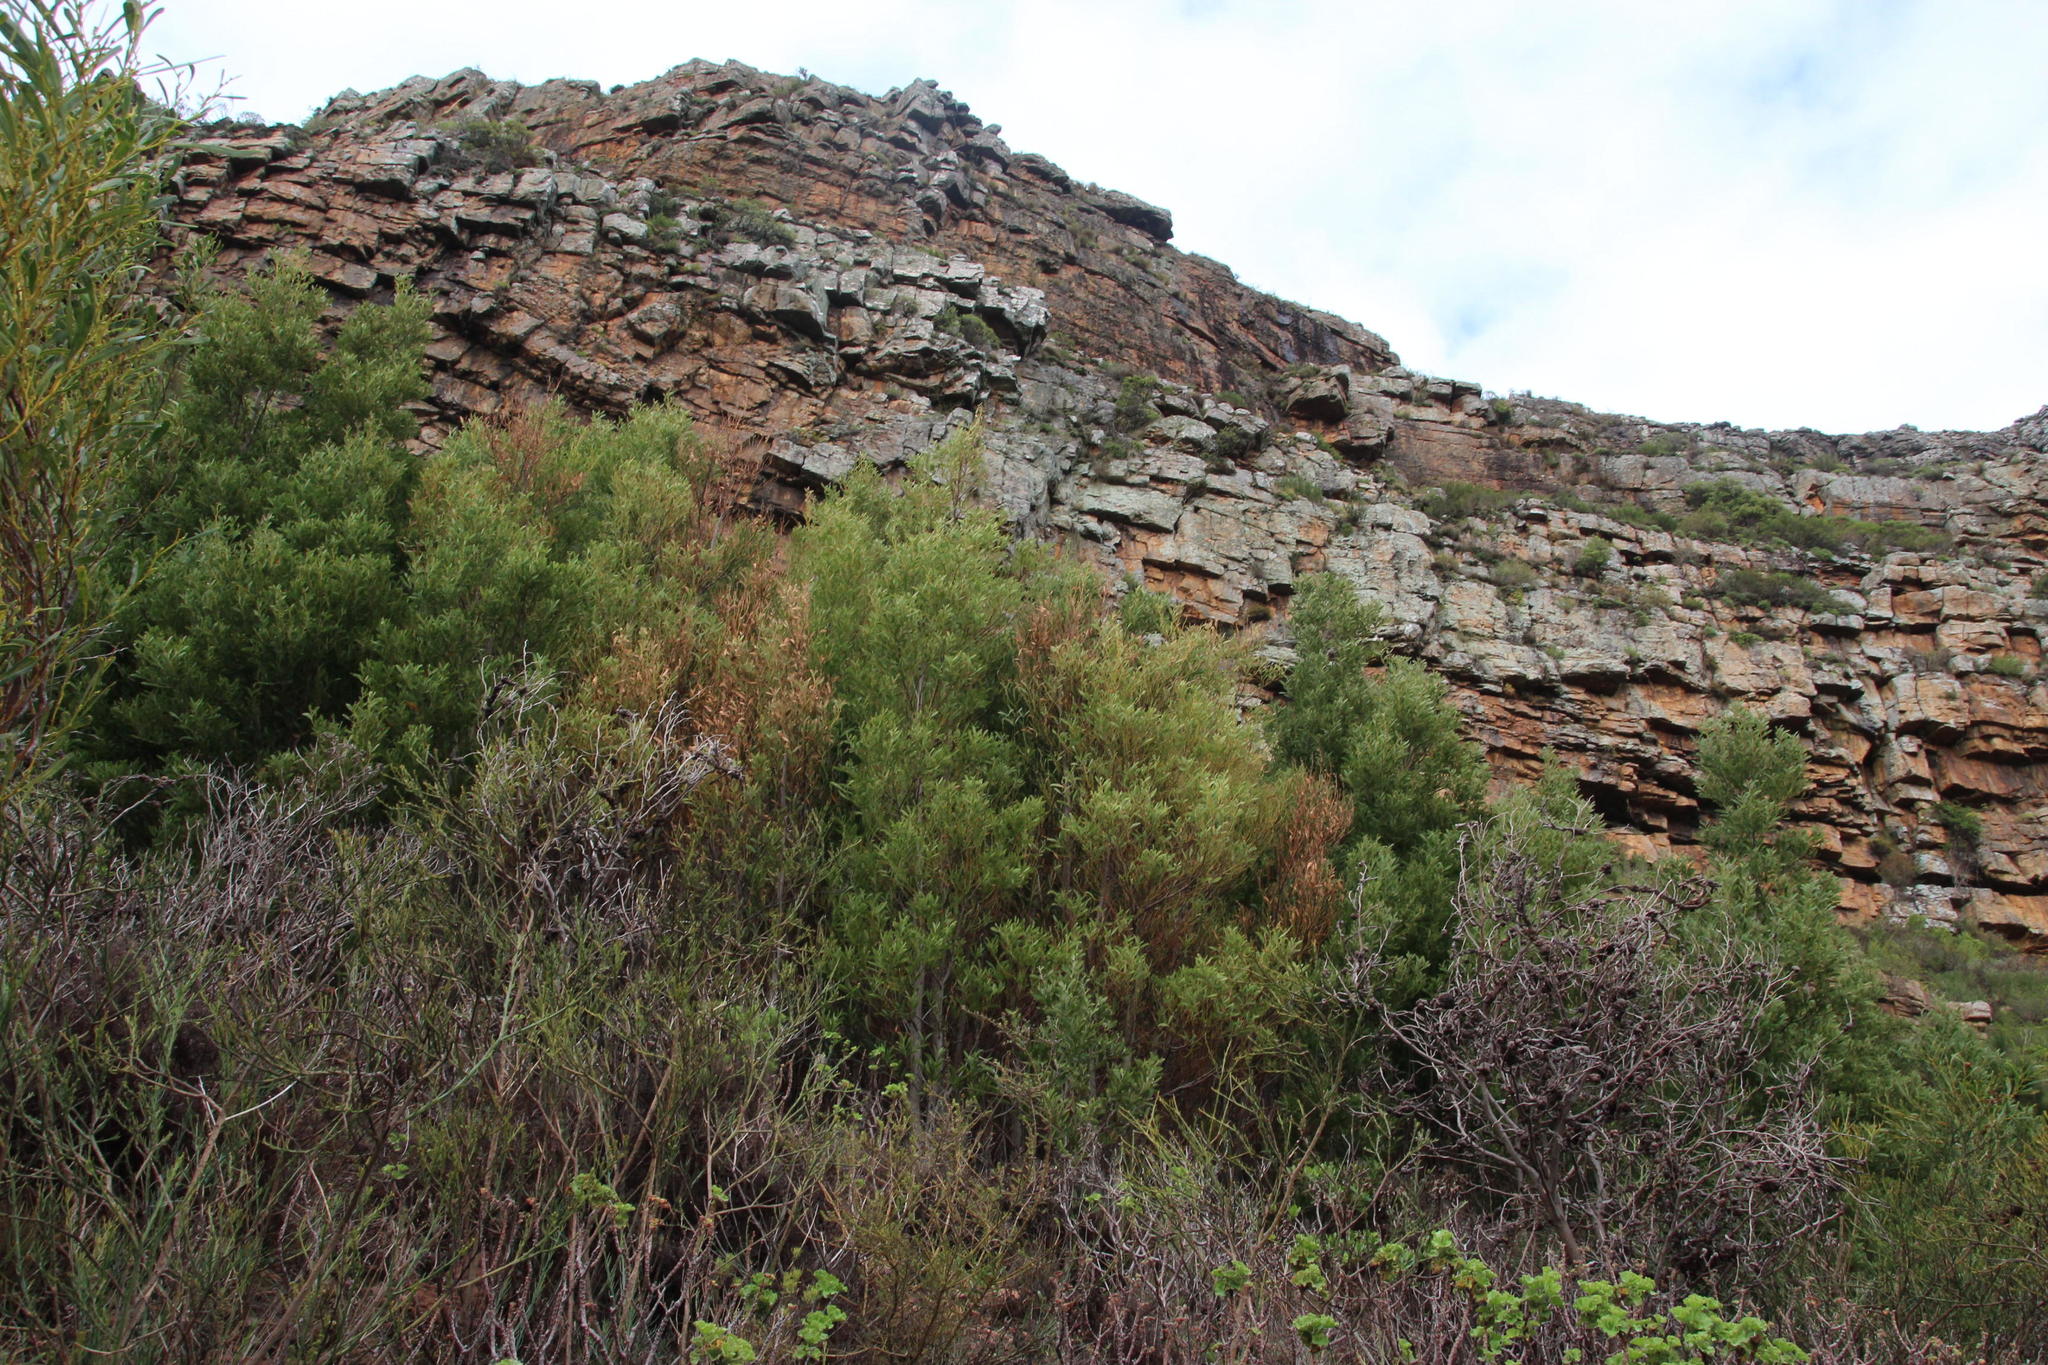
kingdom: Plantae
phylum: Tracheophyta
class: Magnoliopsida
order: Fabales
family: Fabaceae
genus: Acacia
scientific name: Acacia melanoxylon
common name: Blackwood
